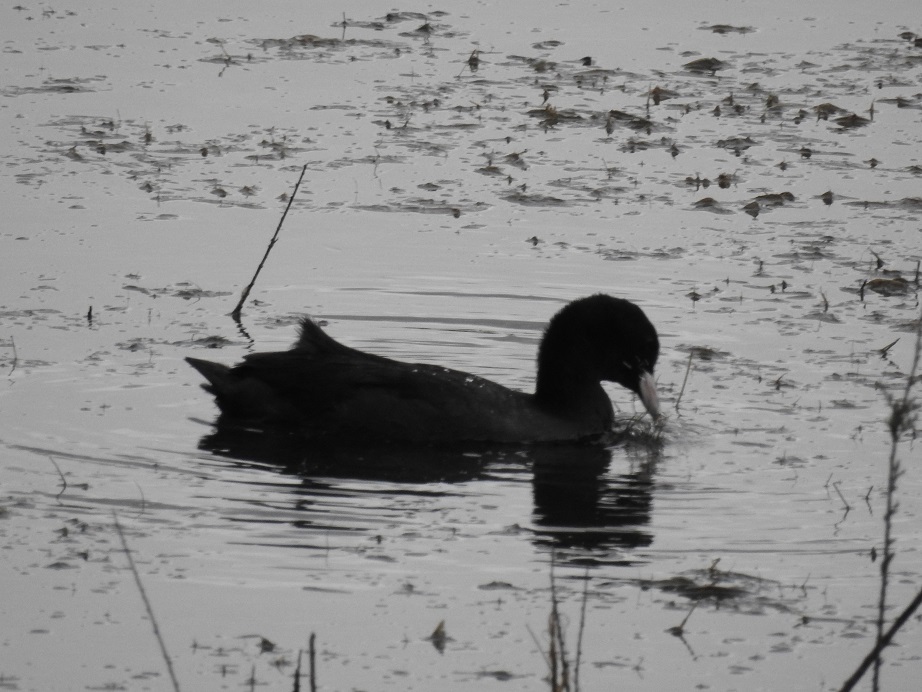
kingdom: Animalia
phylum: Chordata
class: Aves
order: Gruiformes
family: Rallidae
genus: Fulica
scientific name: Fulica atra
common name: Eurasian coot
